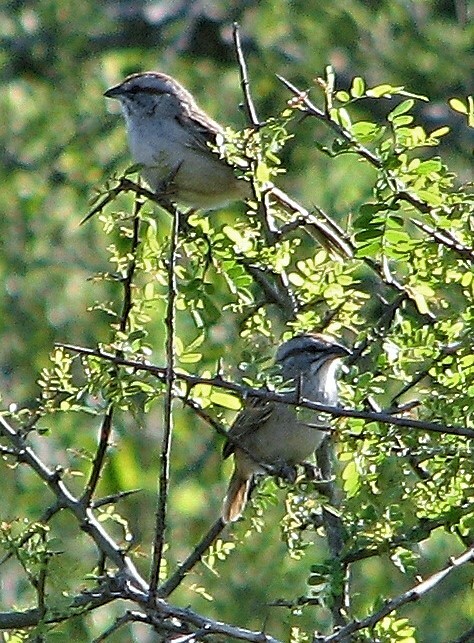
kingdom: Animalia
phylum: Chordata
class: Aves
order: Passeriformes
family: Passerellidae
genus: Rhynchospiza
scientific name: Rhynchospiza strigiceps
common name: Stripe-capped sparrow
